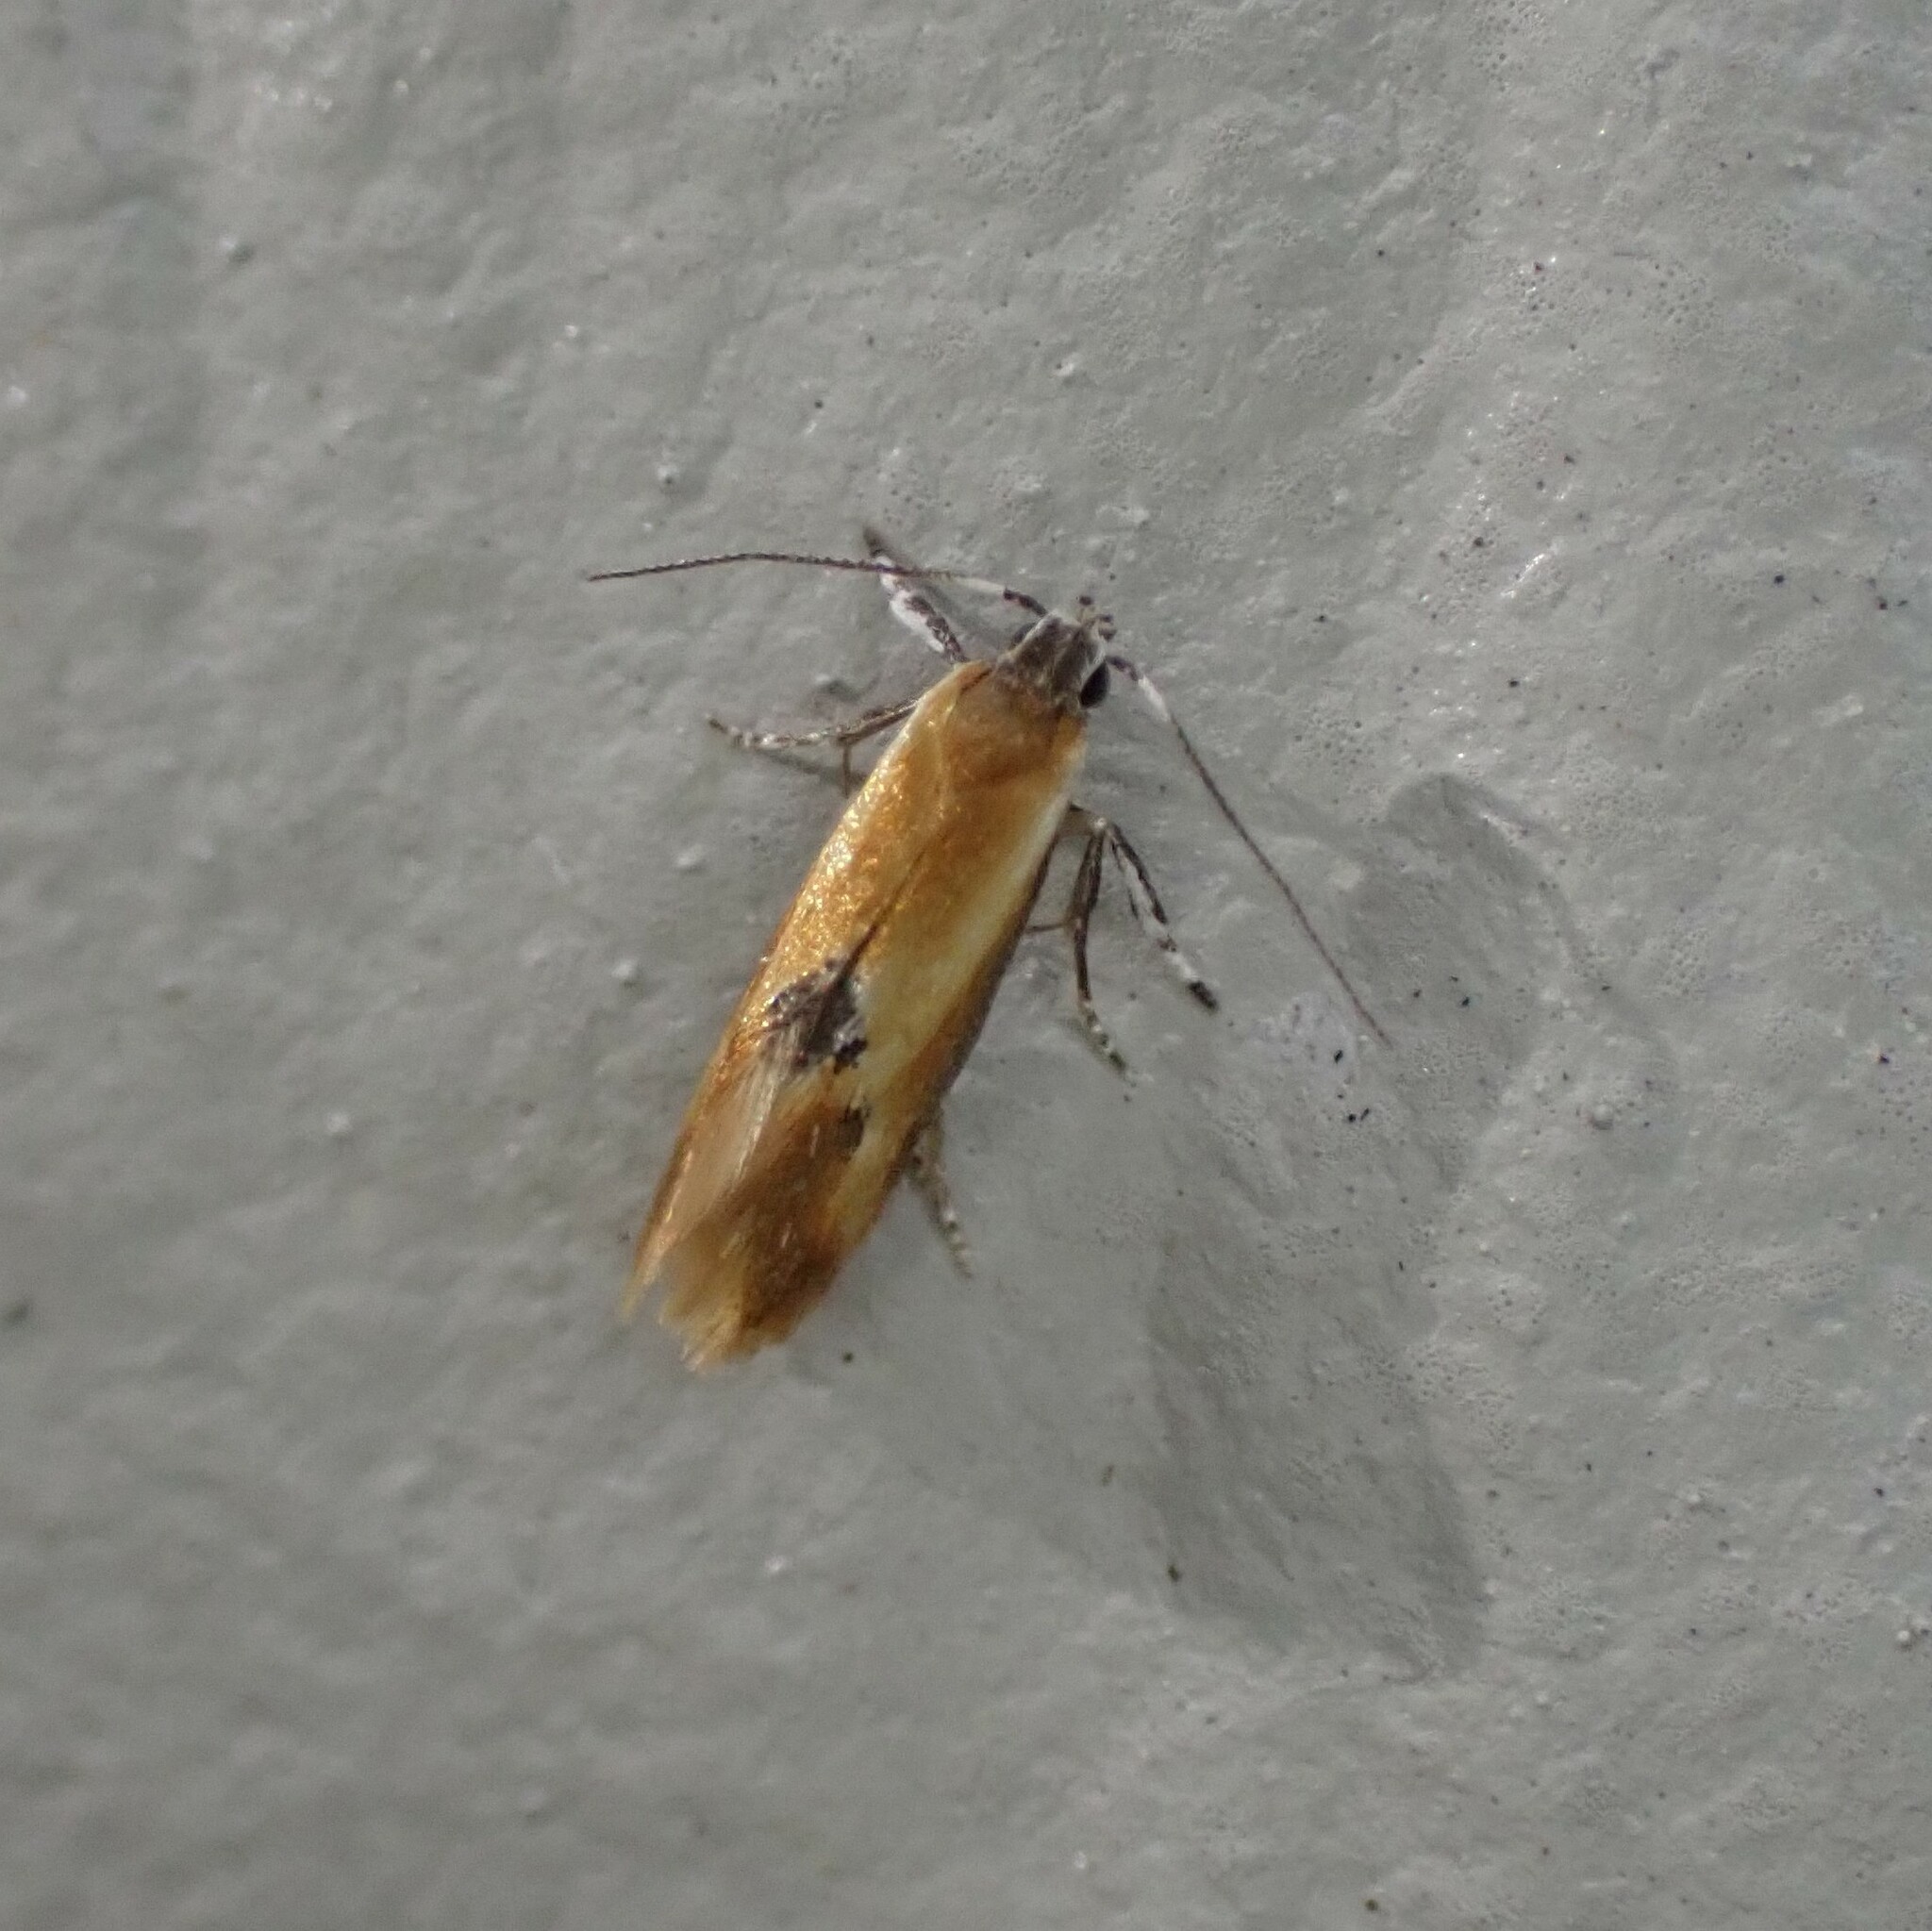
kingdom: Animalia
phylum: Arthropoda
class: Insecta
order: Lepidoptera
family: Oecophoridae
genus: Batia
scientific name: Batia lunaris
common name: Moth
